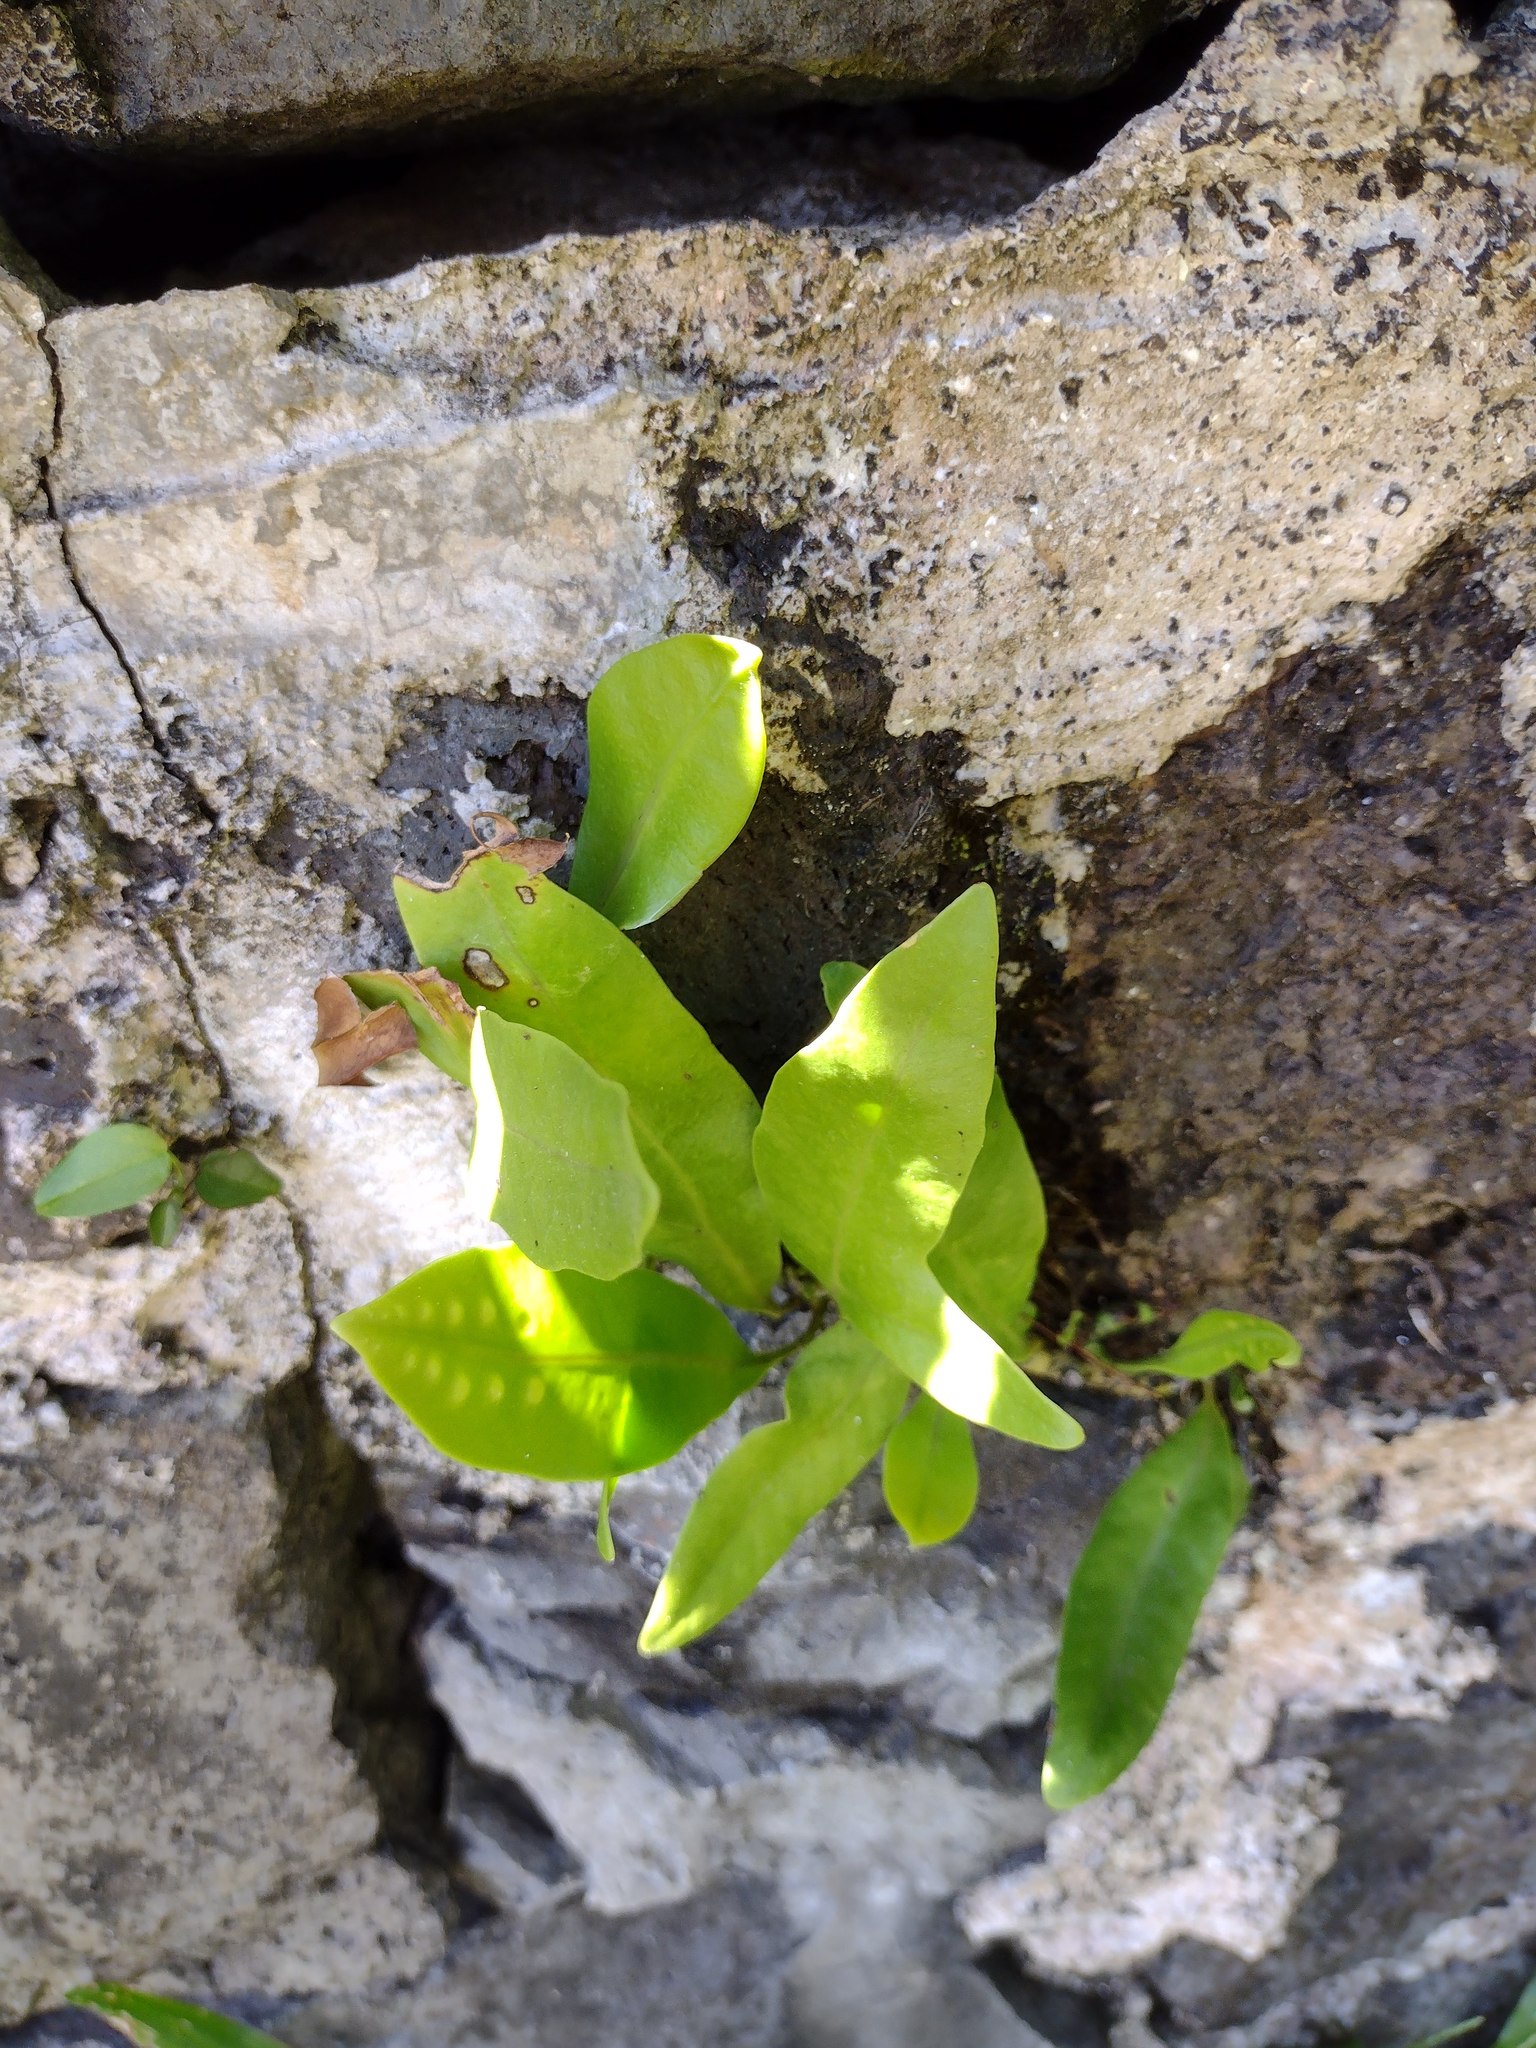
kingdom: Plantae
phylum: Tracheophyta
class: Polypodiopsida
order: Polypodiales
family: Polypodiaceae
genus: Microsorum
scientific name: Microsorum grossum
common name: Musk fern
